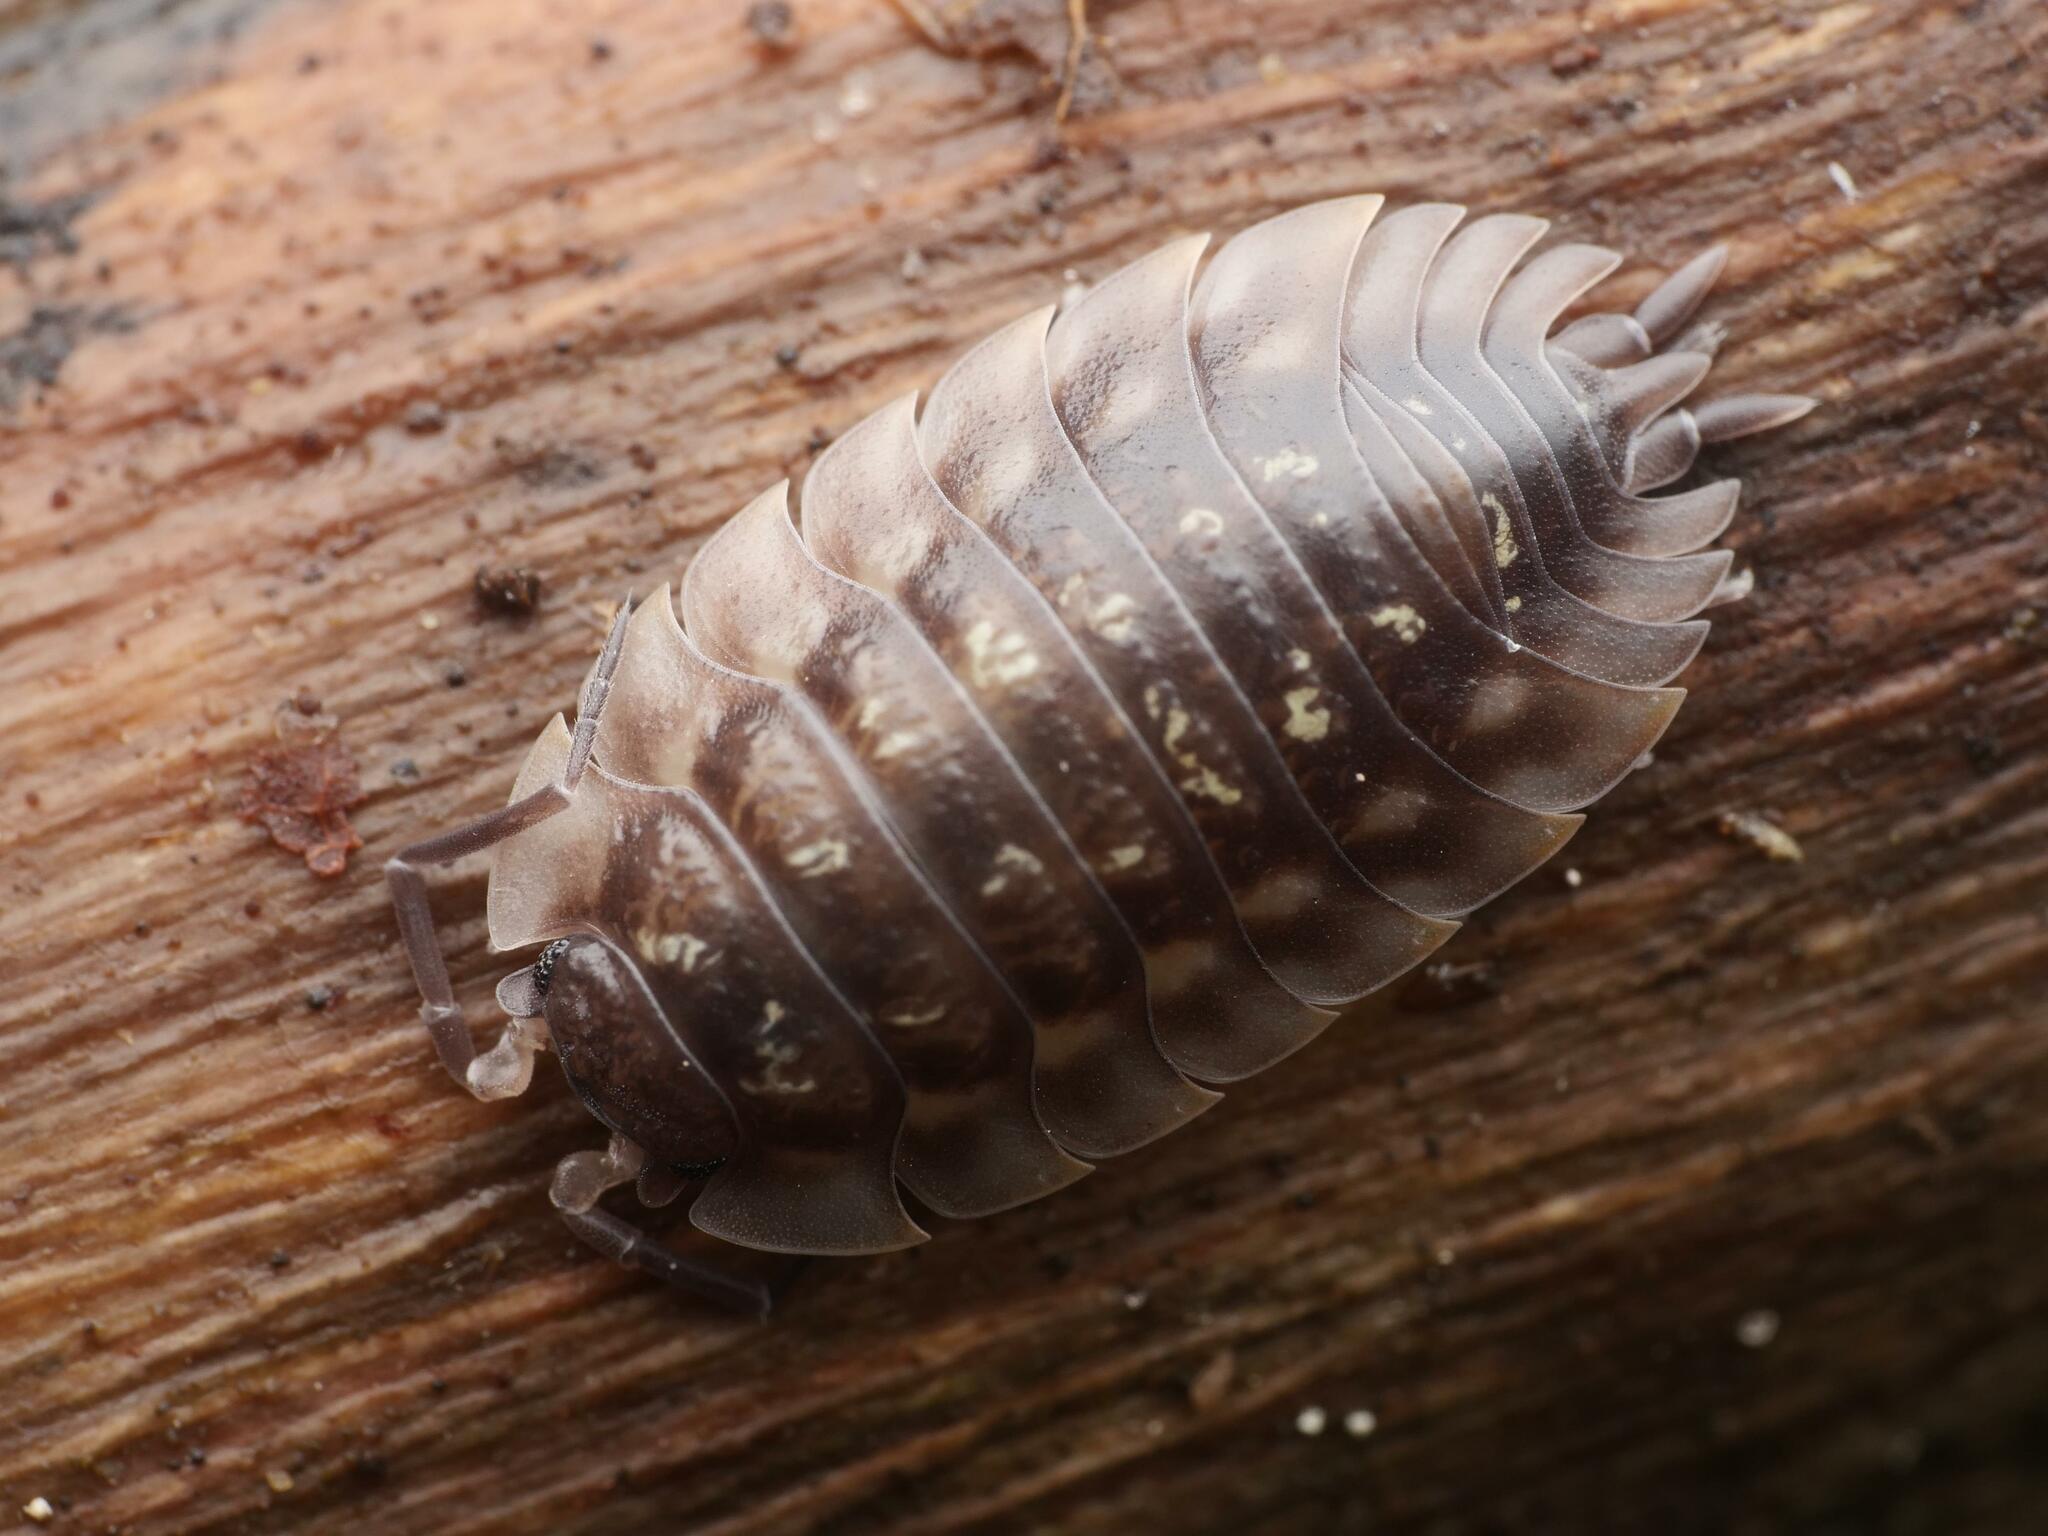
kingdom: Animalia
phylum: Arthropoda
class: Malacostraca
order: Isopoda
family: Oniscidae
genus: Oniscus
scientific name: Oniscus asellus
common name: Common shiny woodlouse
